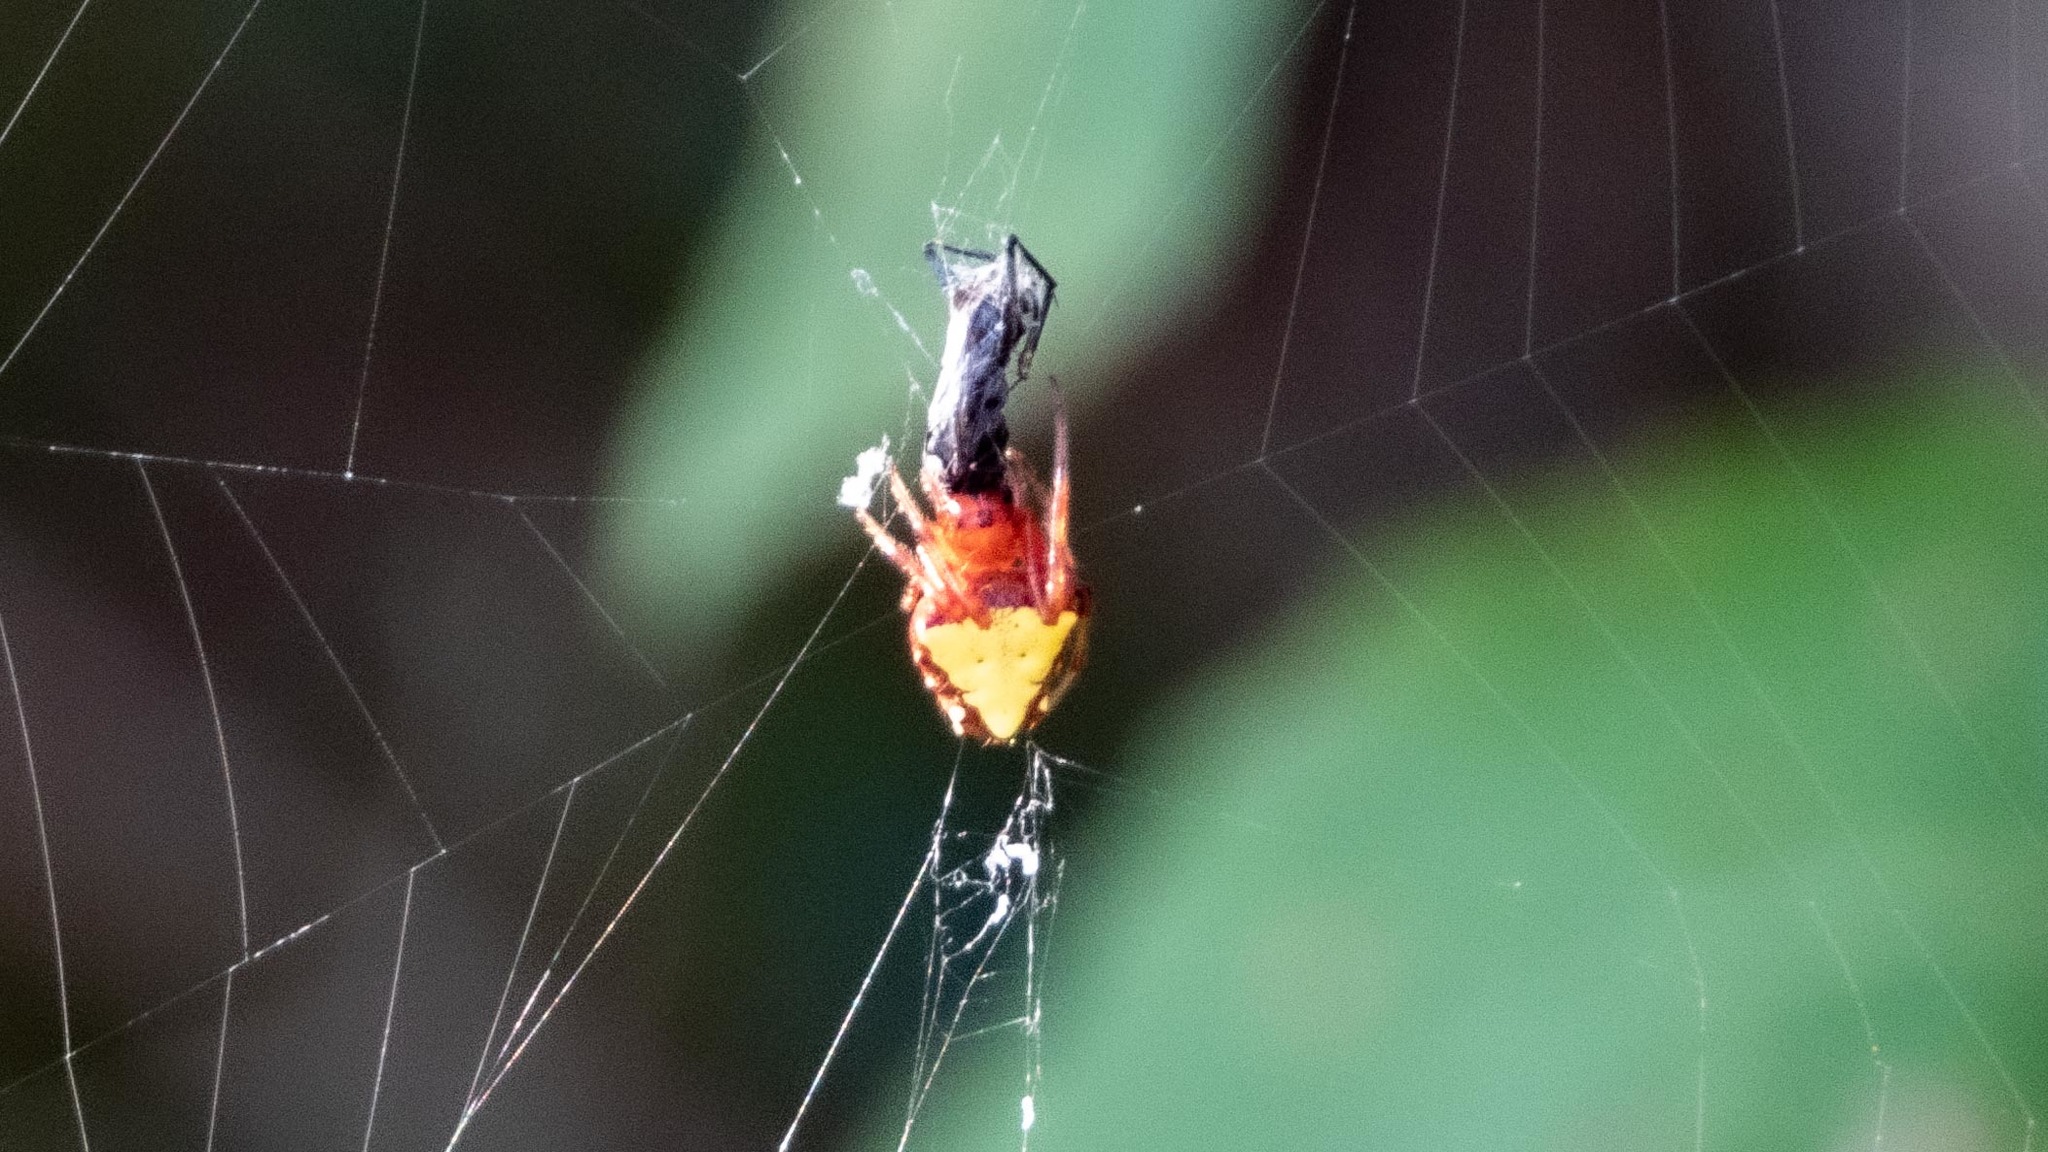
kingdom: Animalia
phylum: Arthropoda
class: Arachnida
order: Araneae
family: Araneidae
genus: Verrucosa
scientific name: Verrucosa arenata
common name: Orb weavers
